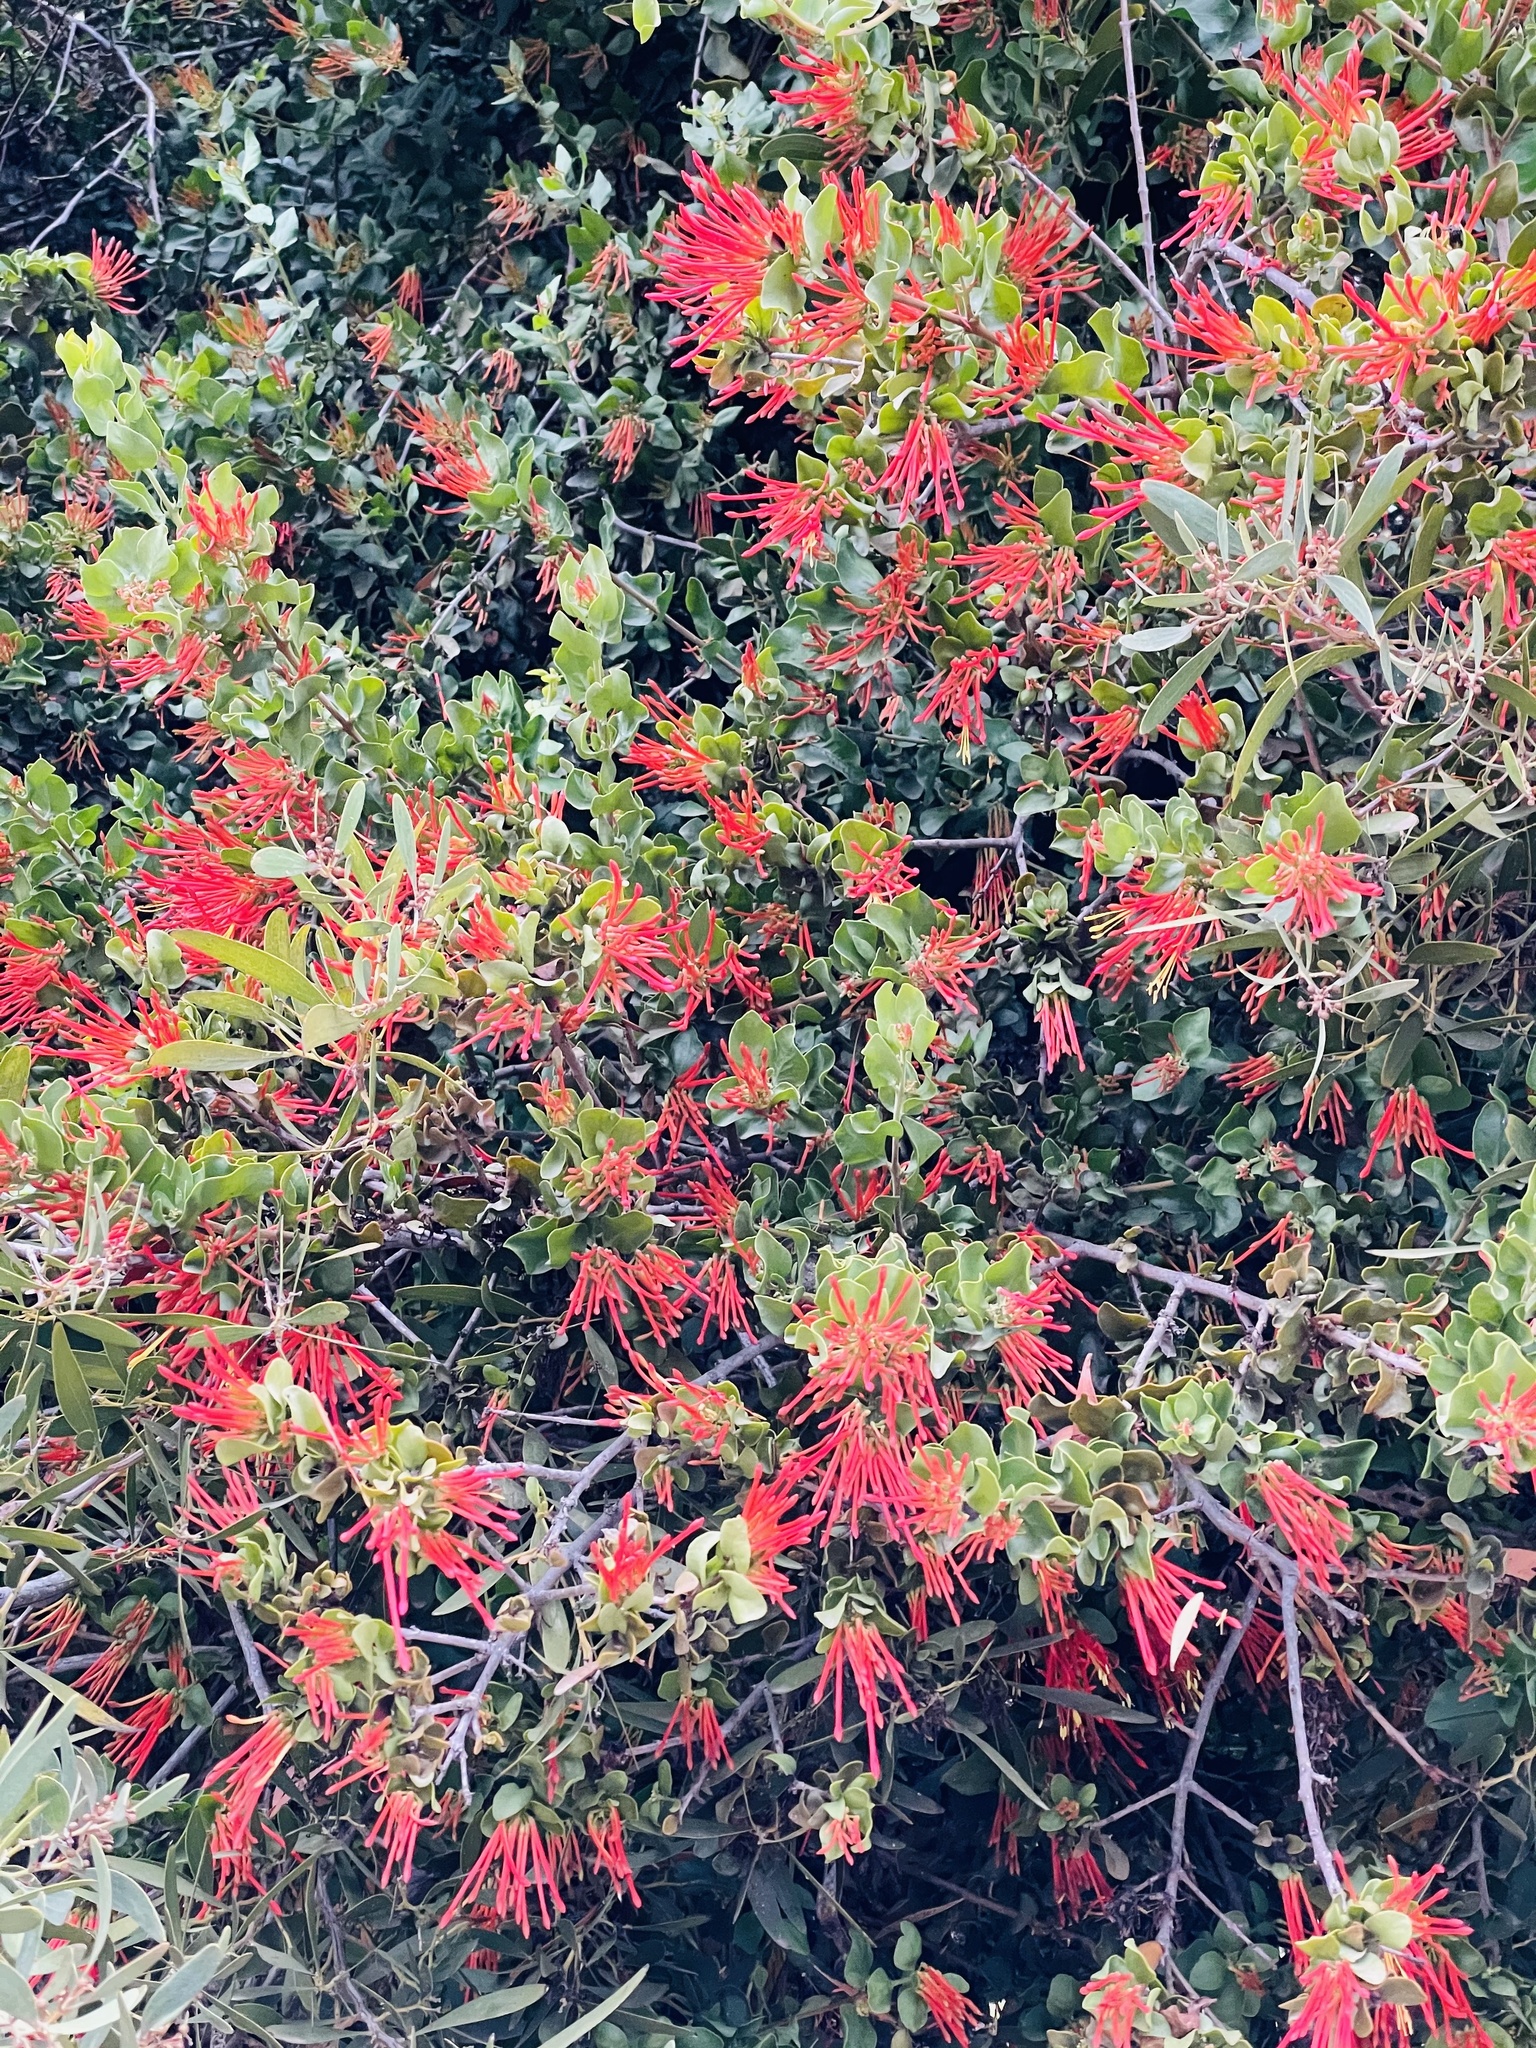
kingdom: Plantae
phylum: Tracheophyta
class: Magnoliopsida
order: Santalales
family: Loranthaceae
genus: Tristerix
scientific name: Tristerix corymbosus
